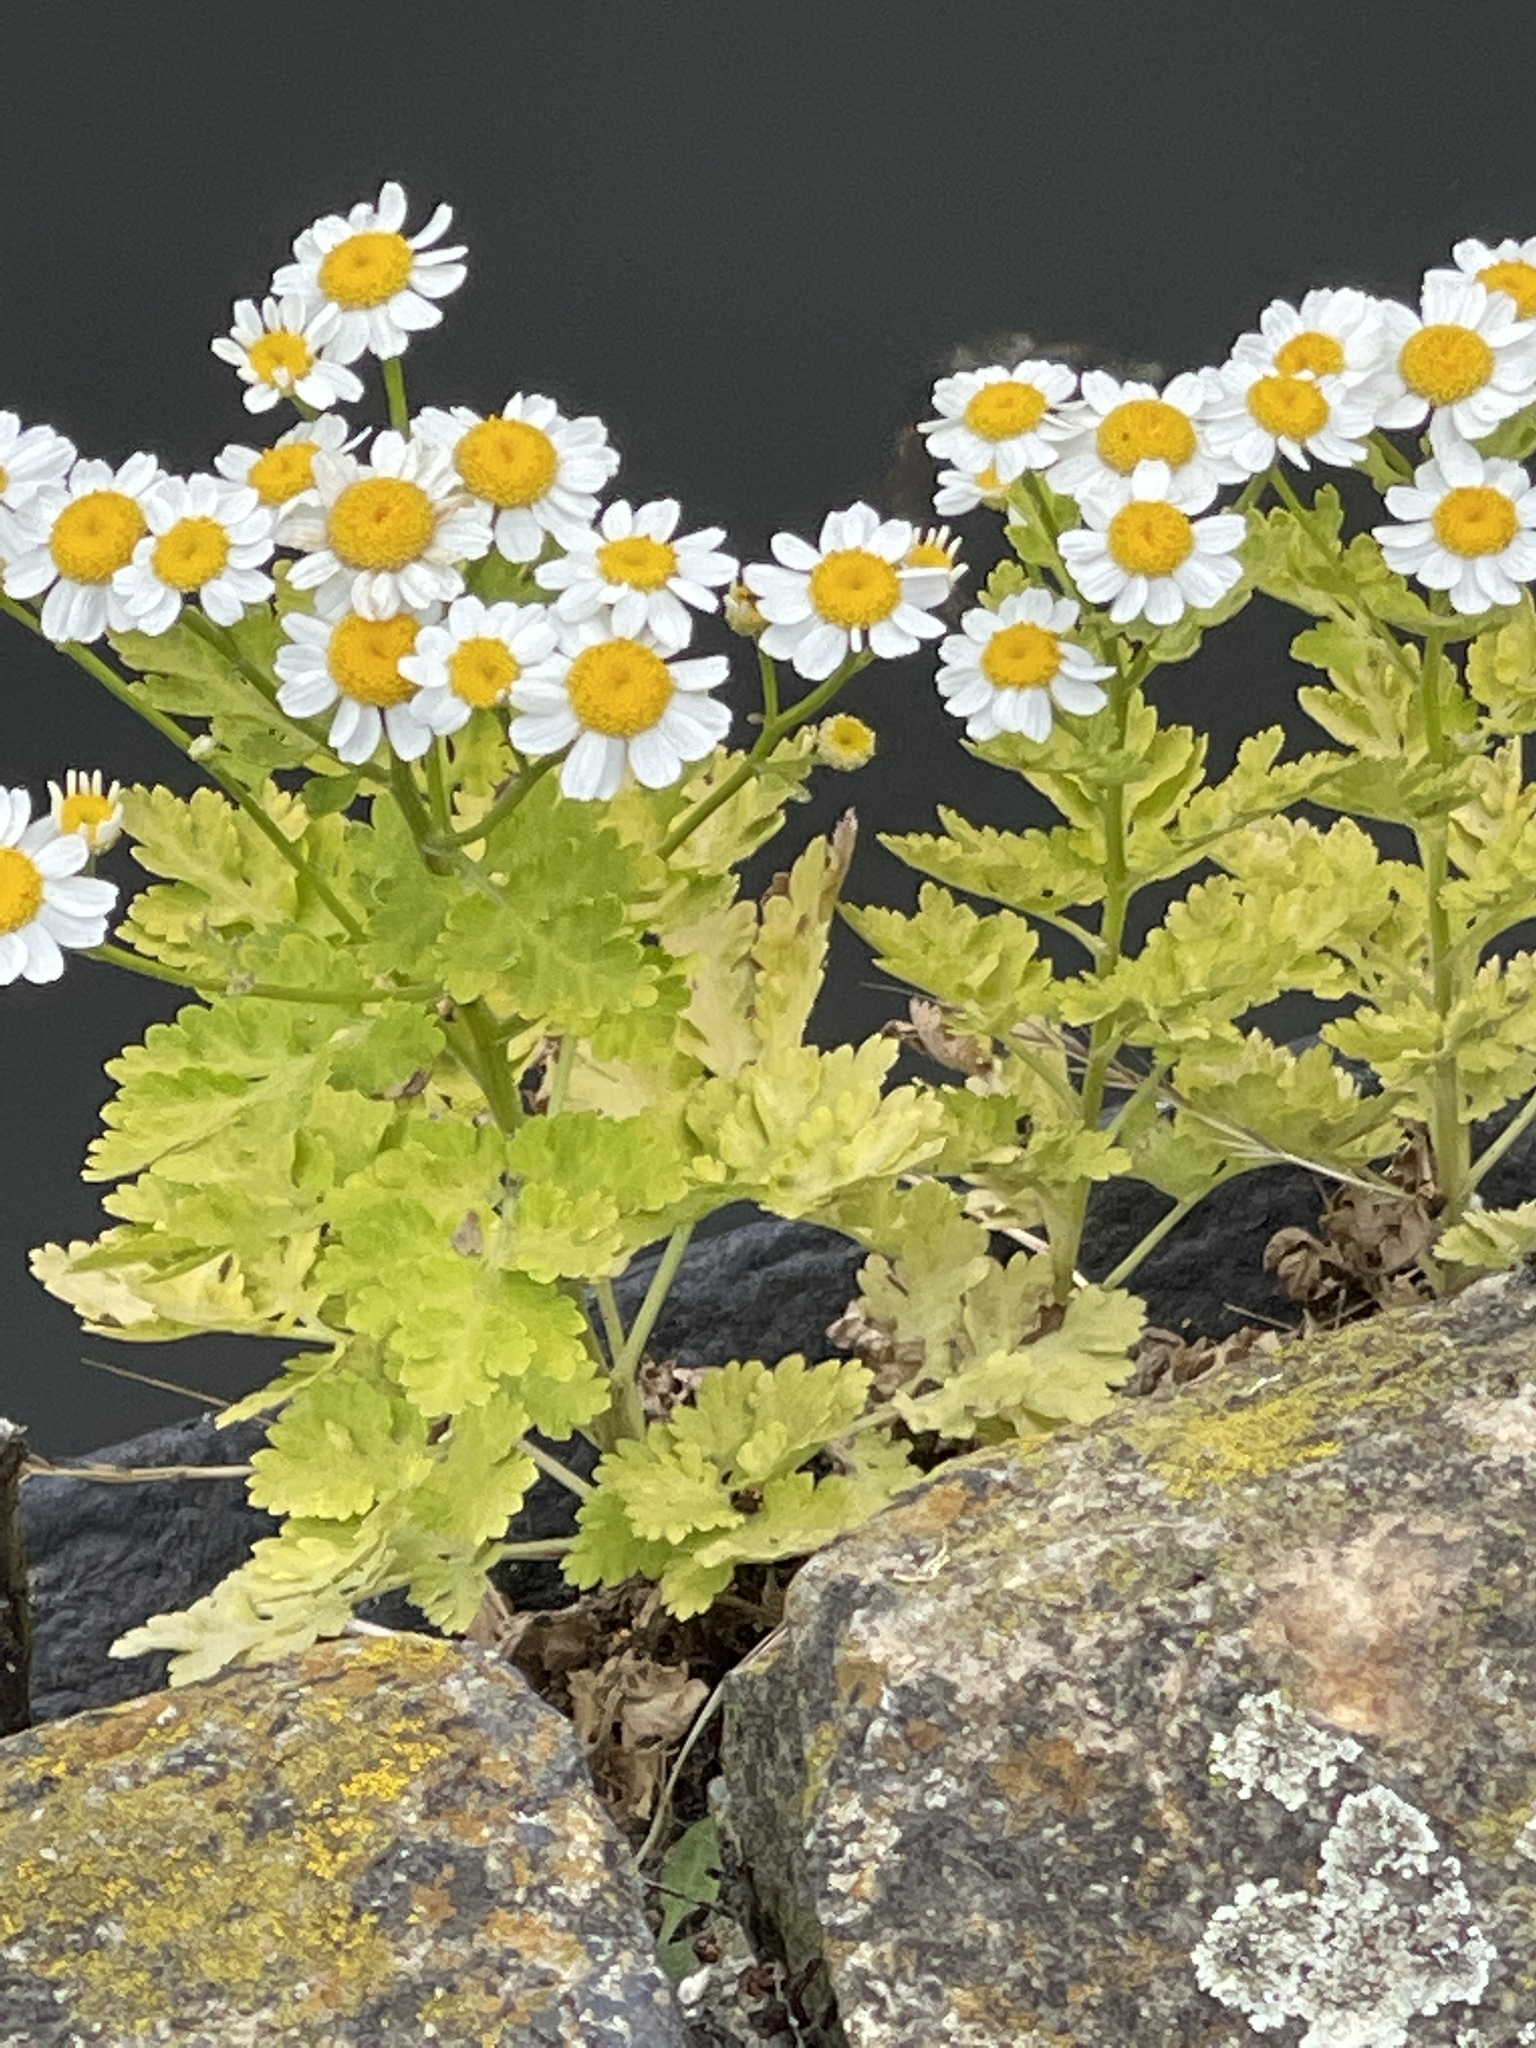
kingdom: Plantae
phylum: Tracheophyta
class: Magnoliopsida
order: Asterales
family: Asteraceae
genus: Tanacetum
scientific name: Tanacetum parthenium
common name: Feverfew
